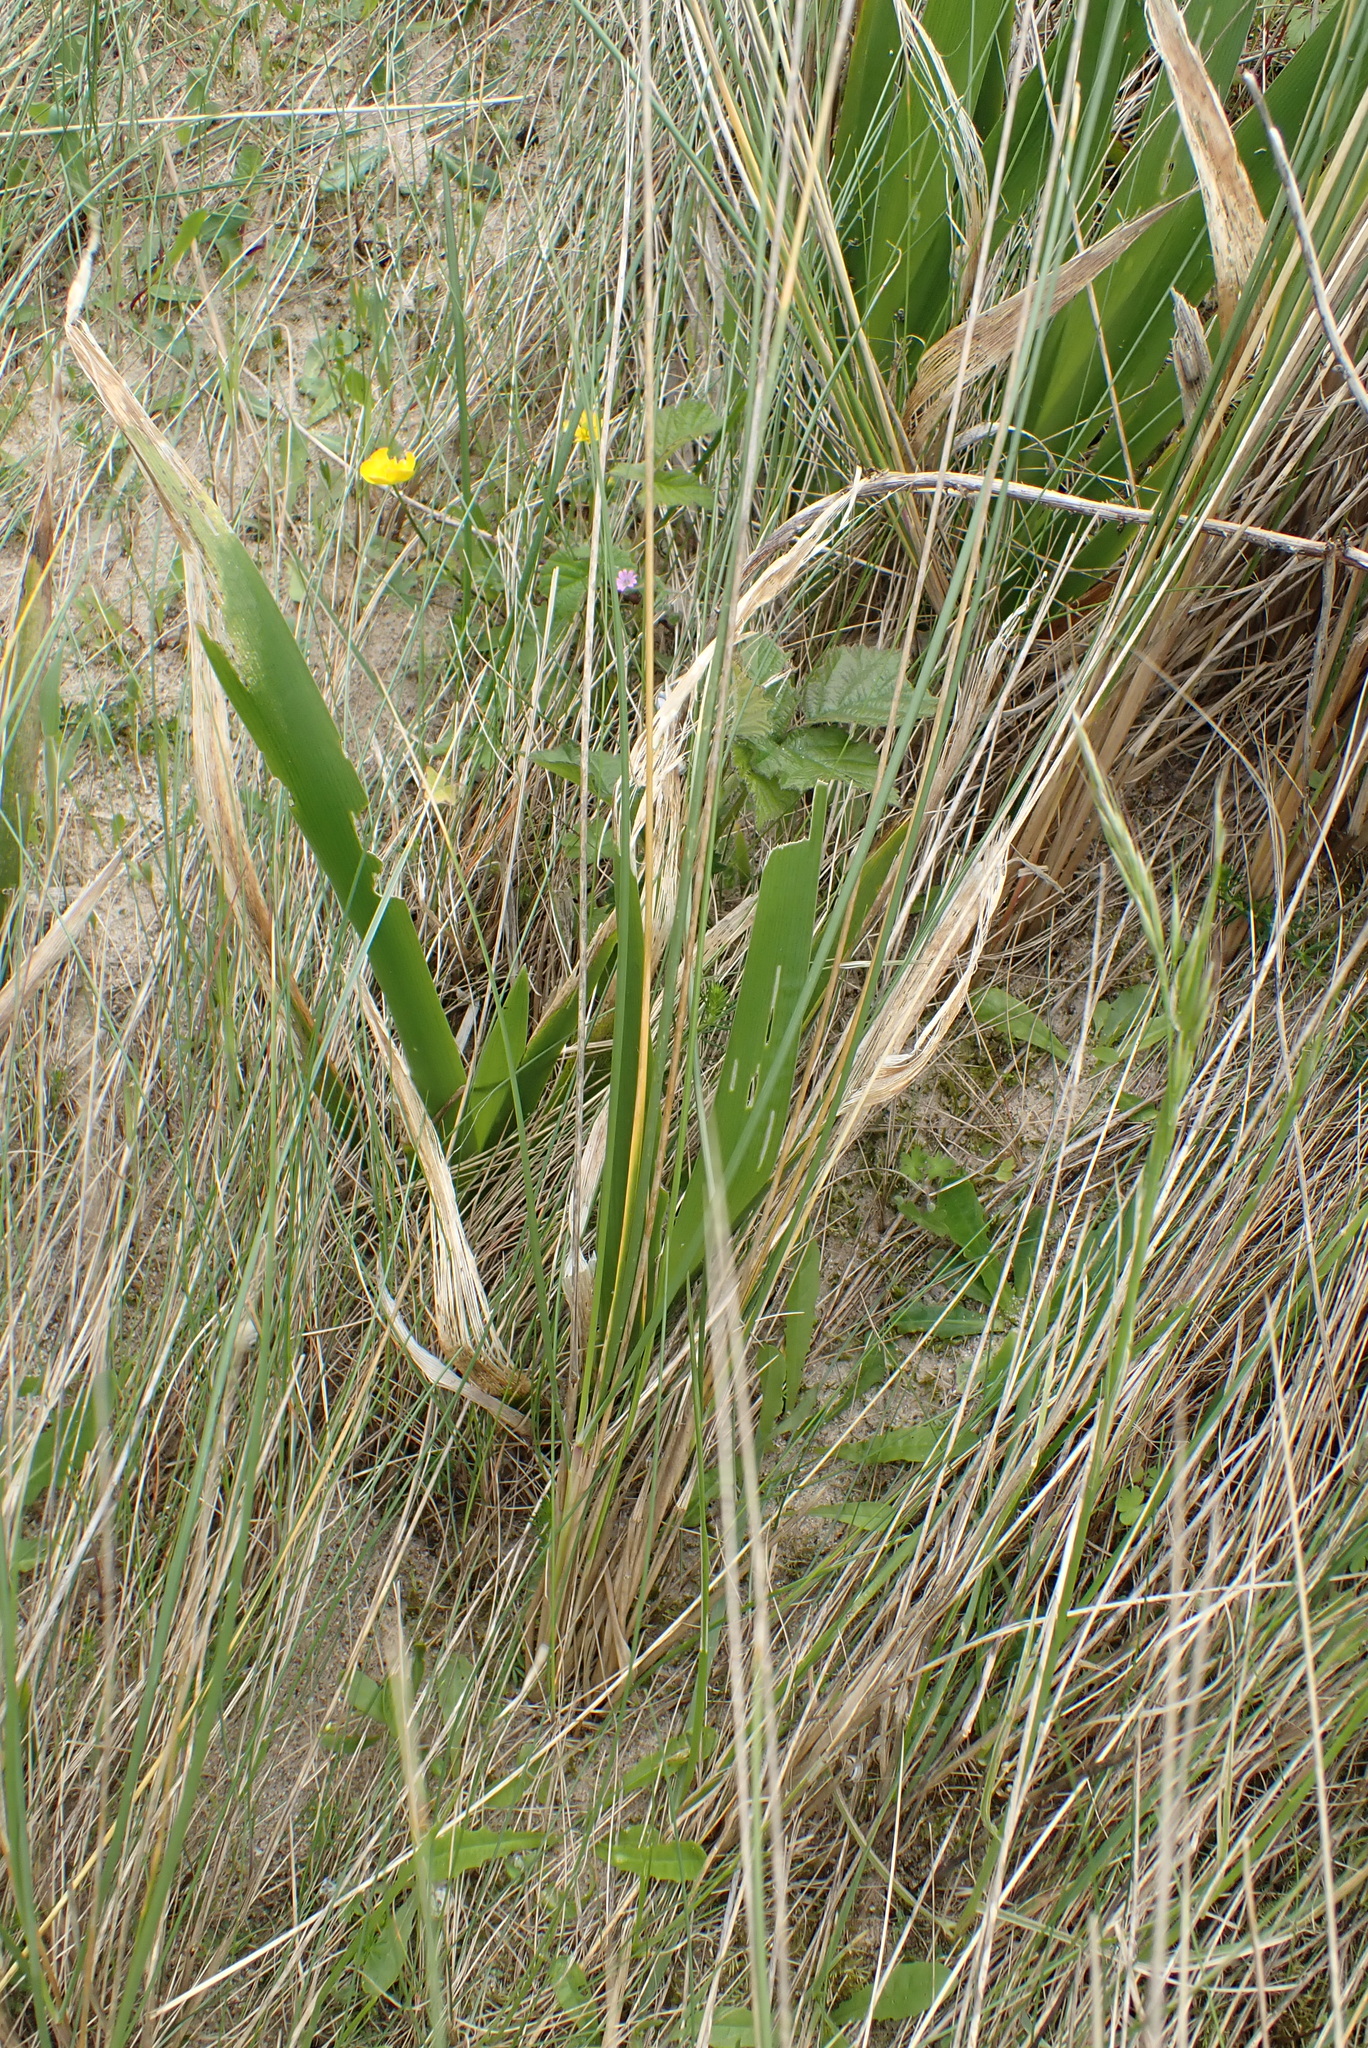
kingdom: Plantae
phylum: Tracheophyta
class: Liliopsida
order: Asparagales
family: Iridaceae
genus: Iris
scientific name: Iris foetidissima
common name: Stinking iris
